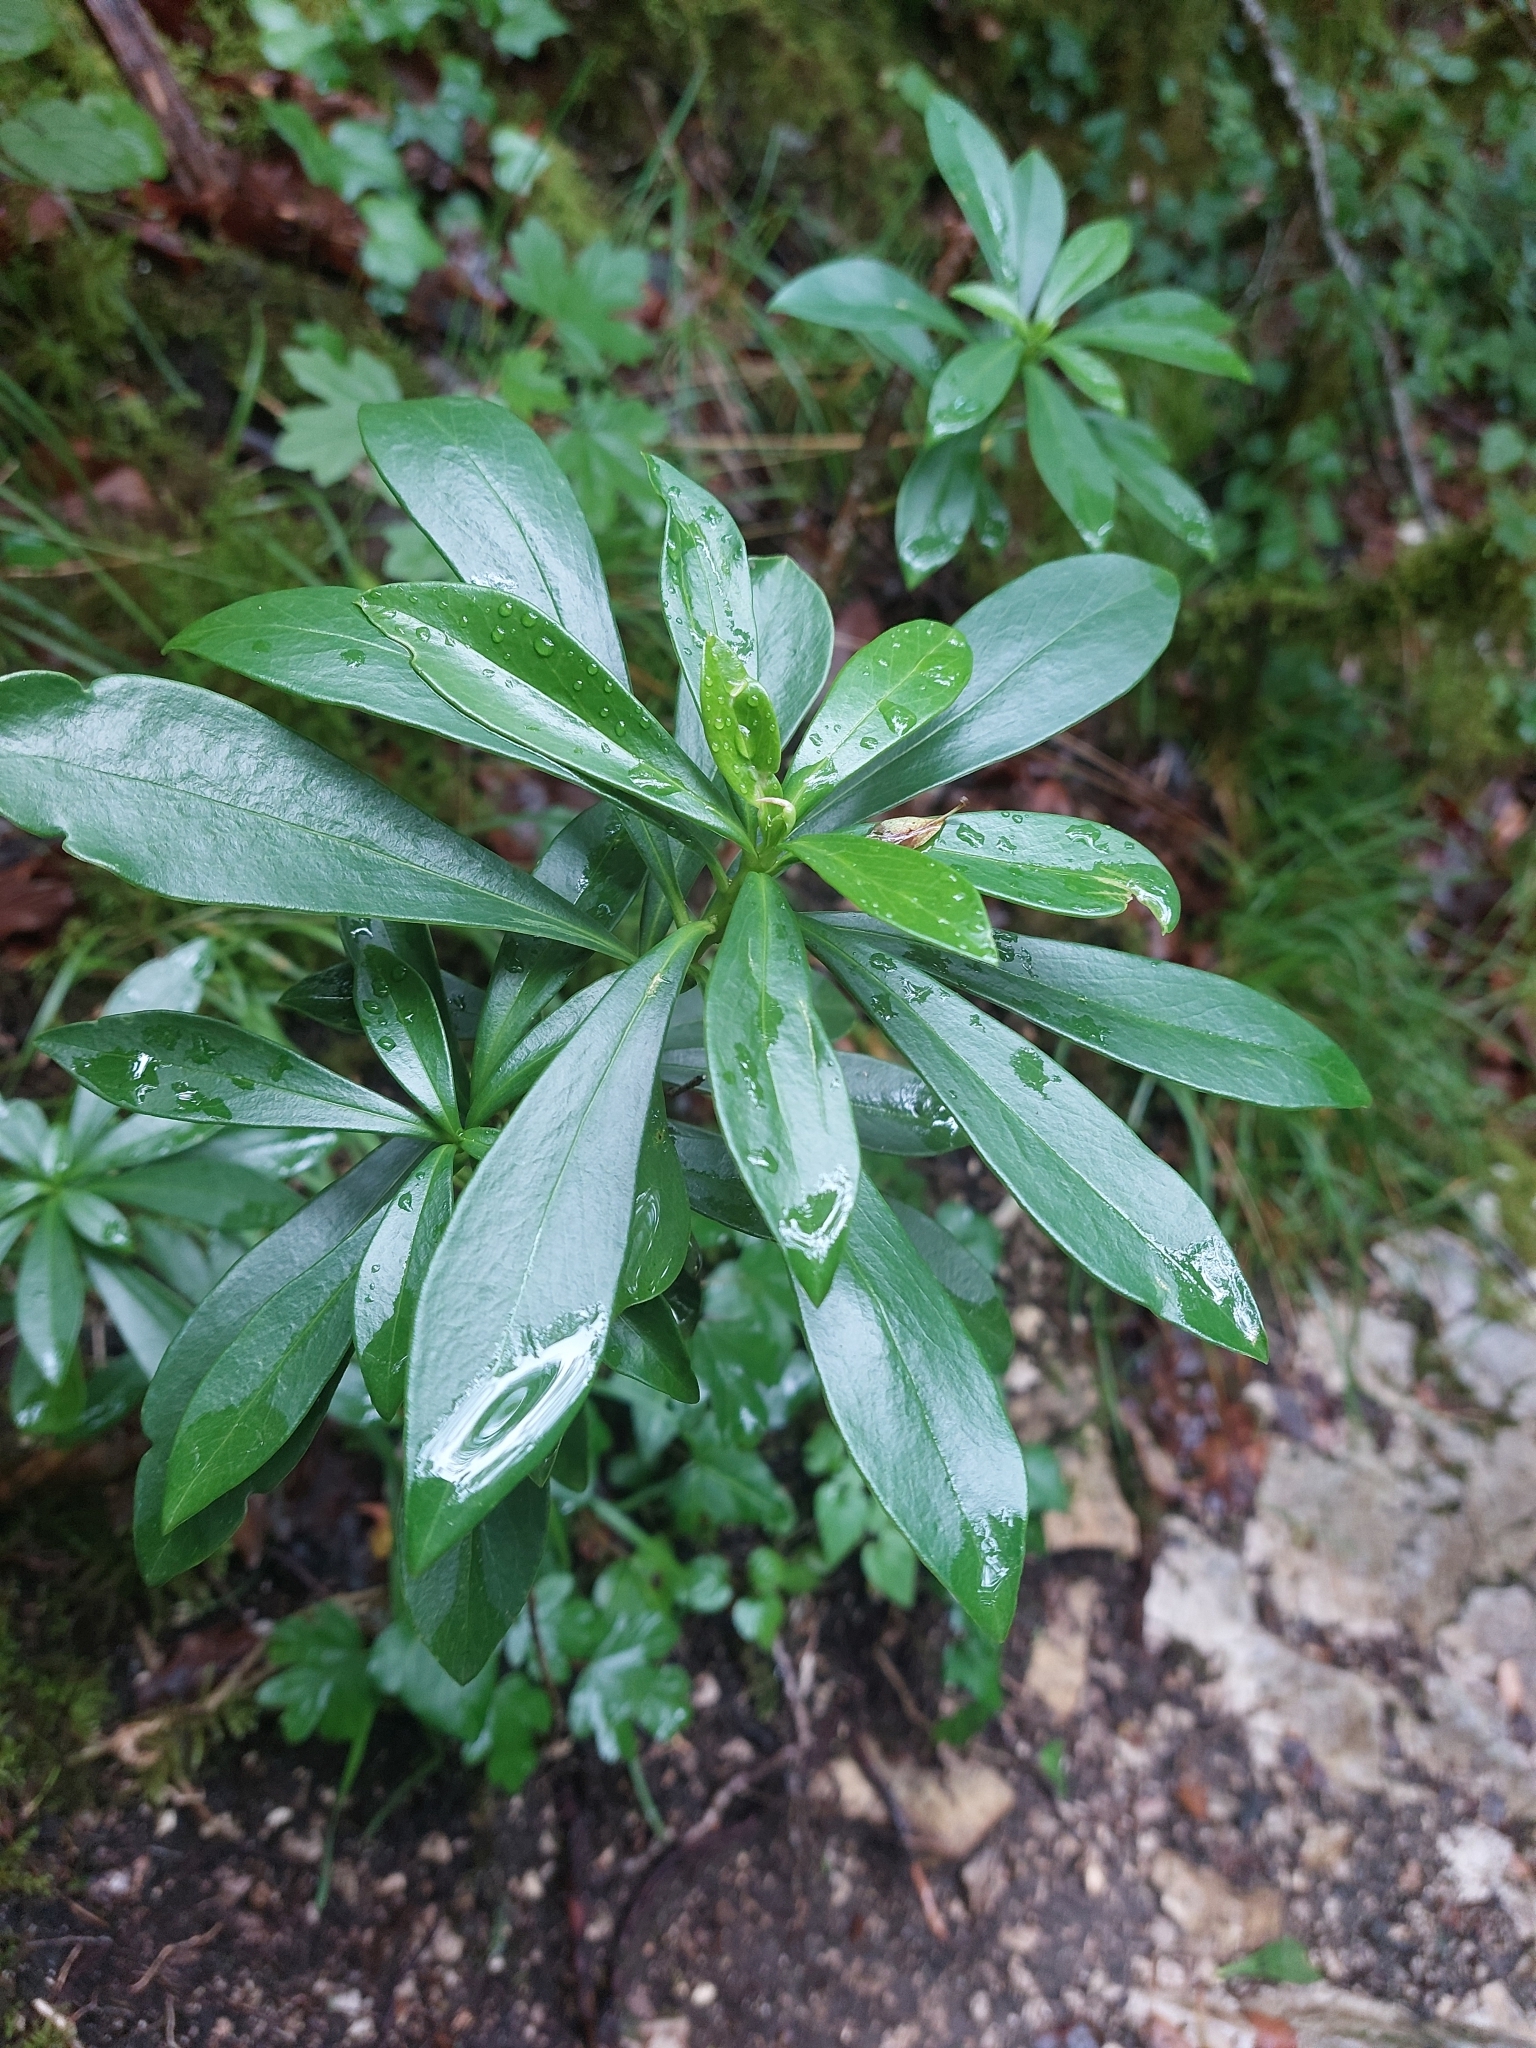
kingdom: Plantae
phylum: Tracheophyta
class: Magnoliopsida
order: Malvales
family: Thymelaeaceae
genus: Daphne
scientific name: Daphne laureola
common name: Spurge-laurel
